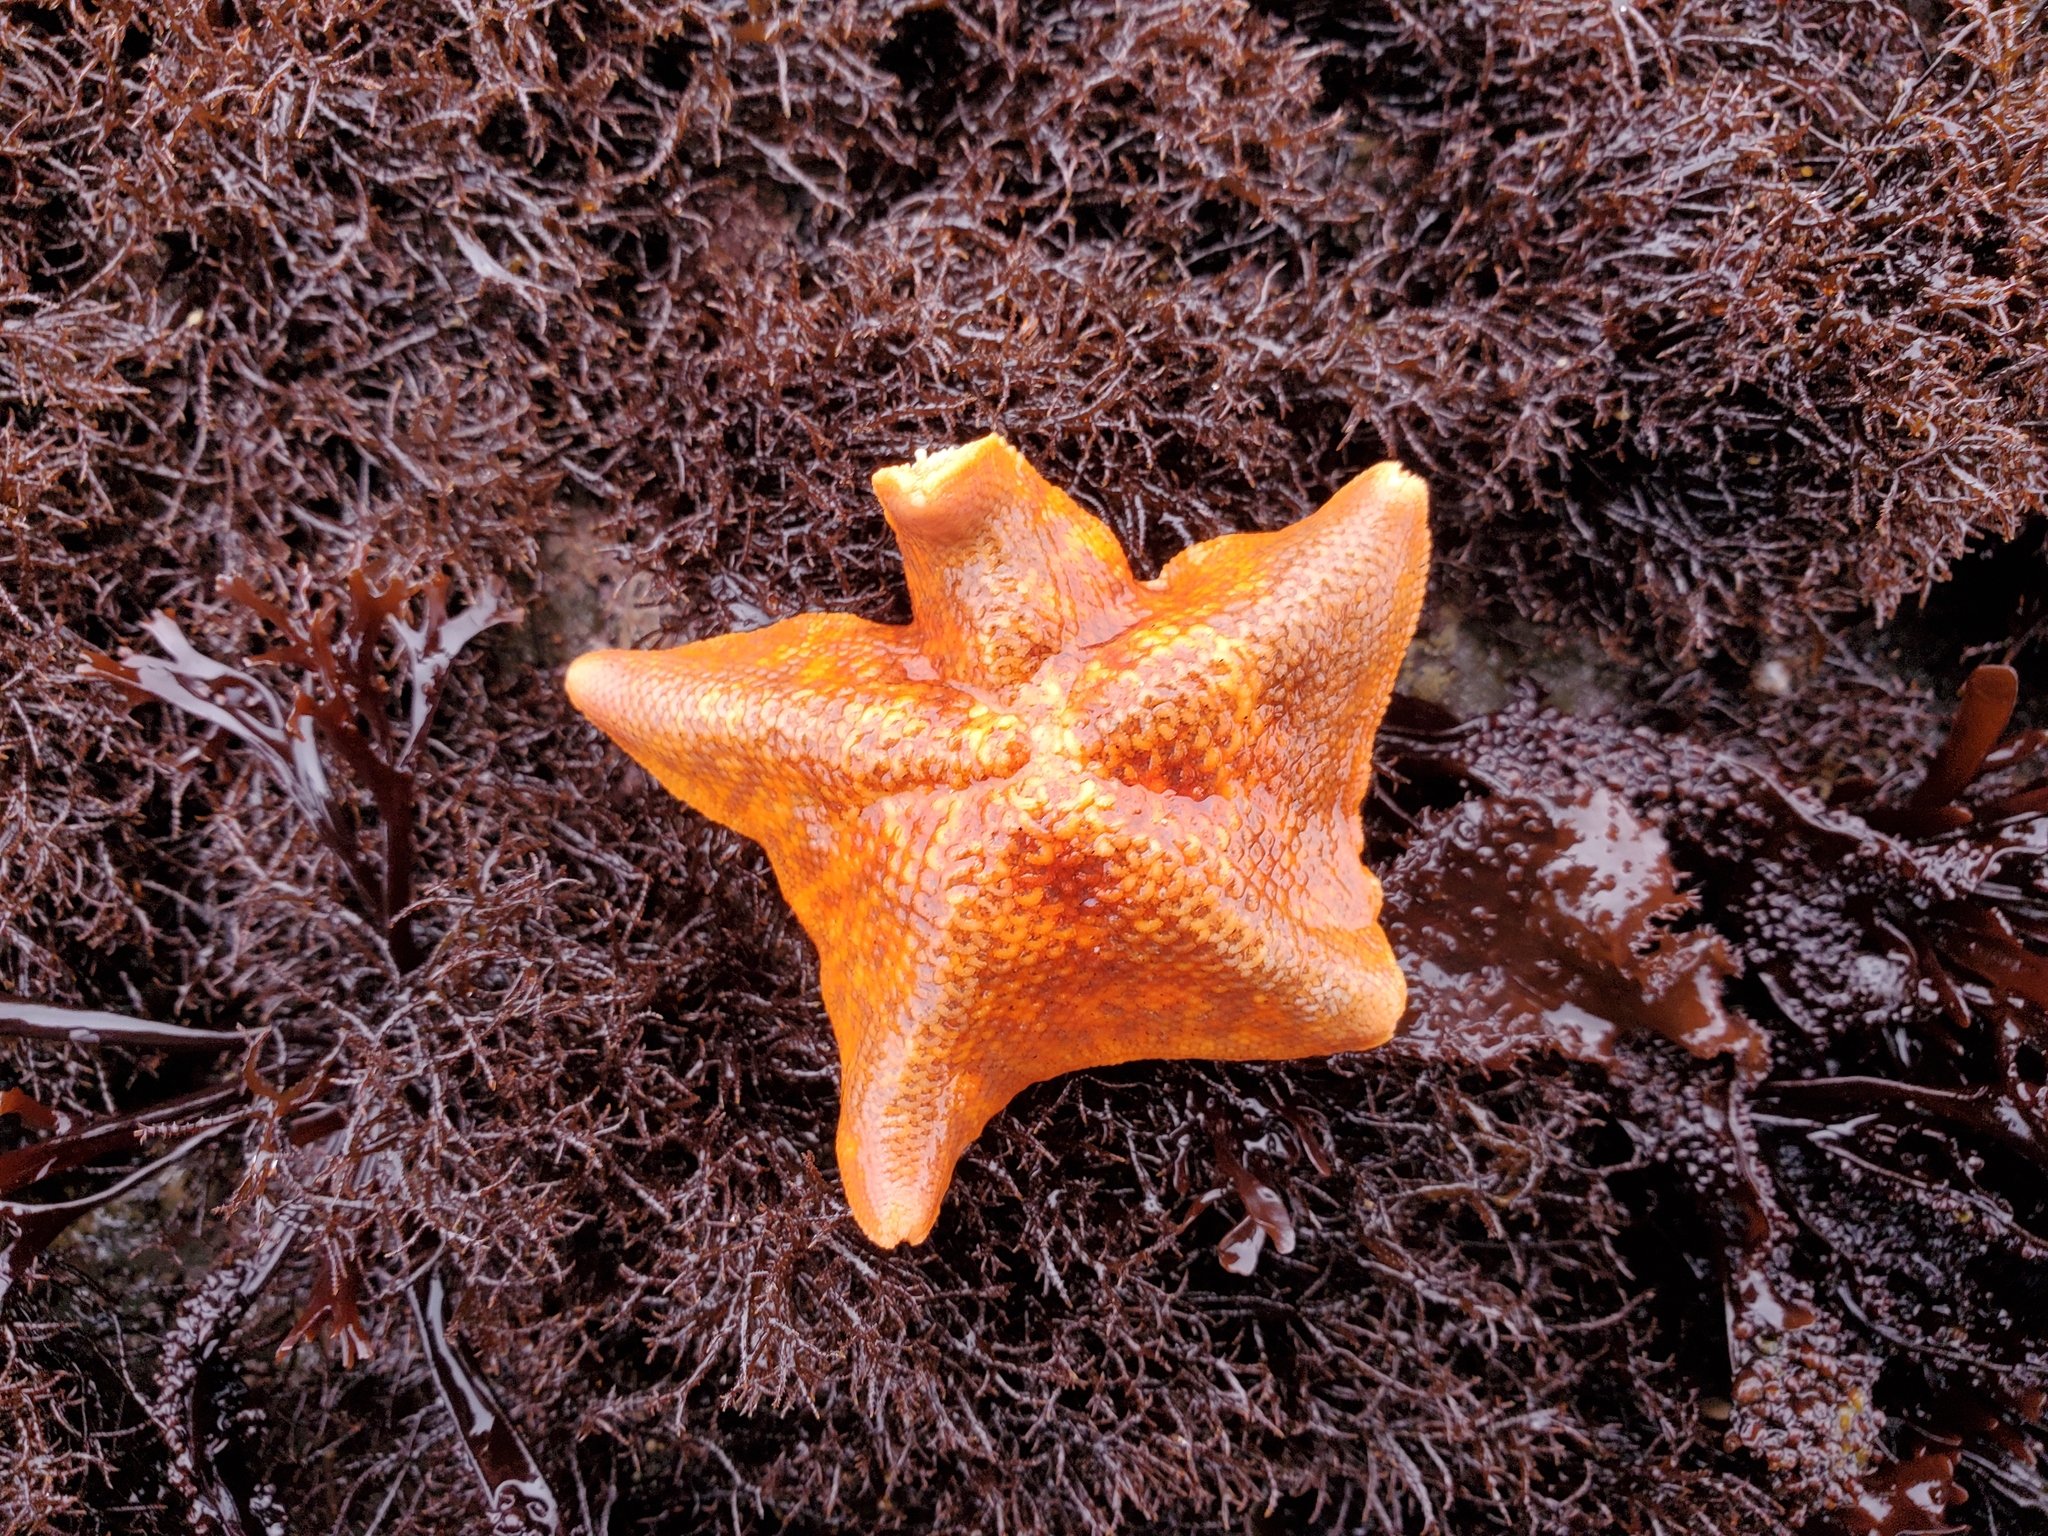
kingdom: Animalia
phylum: Echinodermata
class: Asteroidea
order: Valvatida
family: Asterinidae
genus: Patiria
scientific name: Patiria miniata
